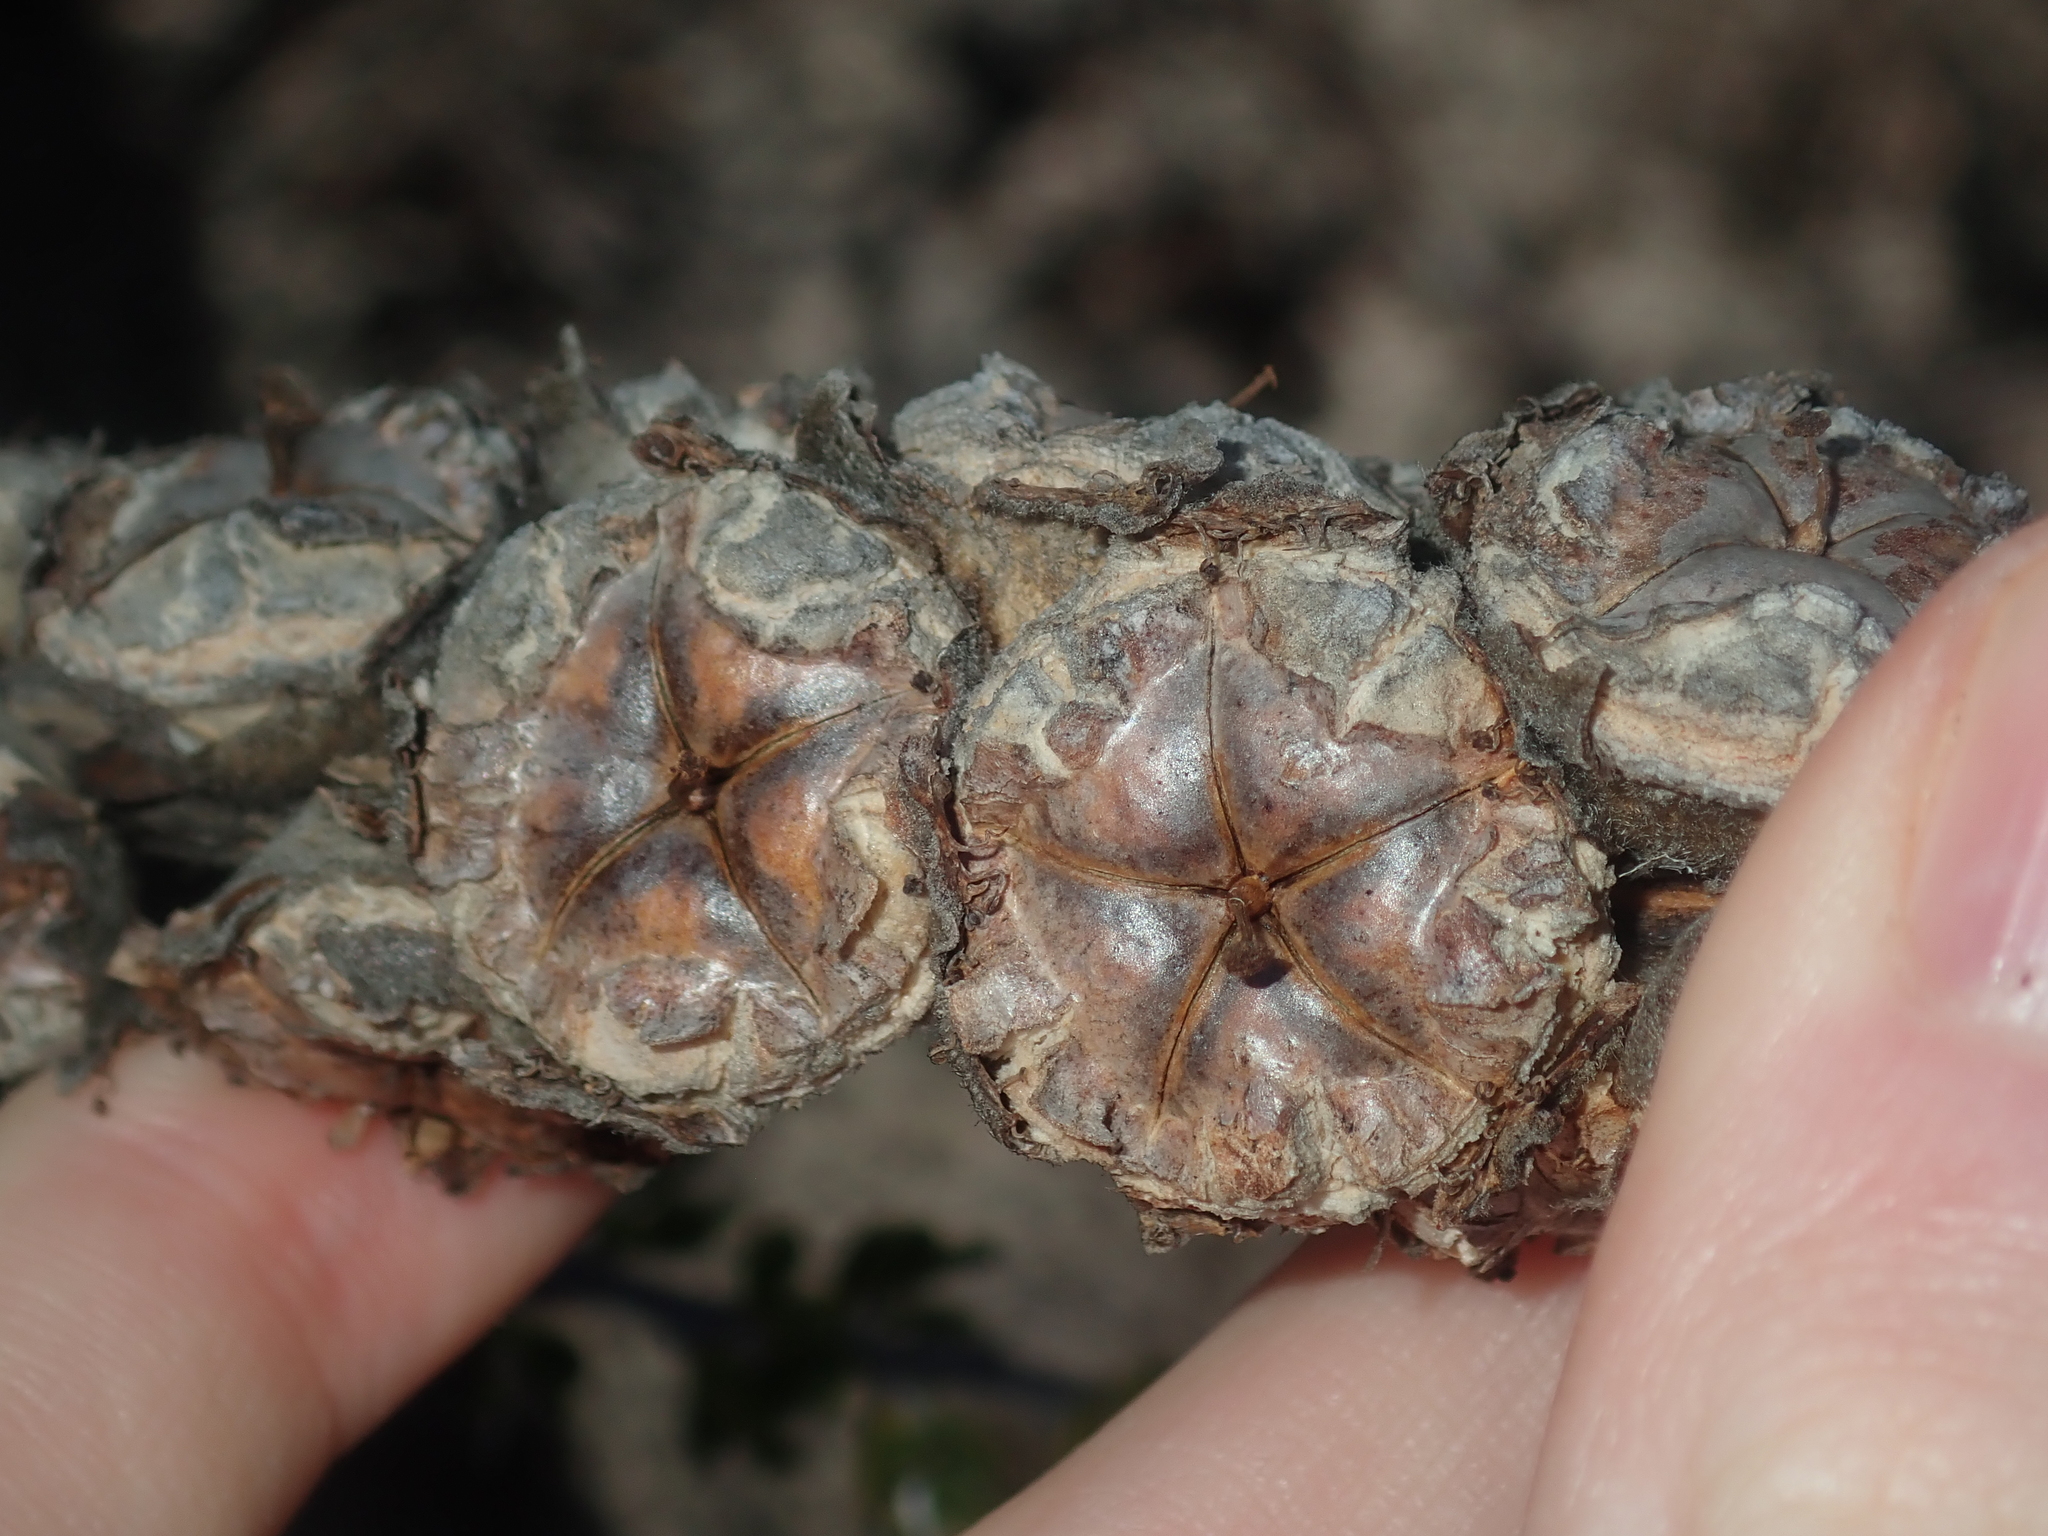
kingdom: Plantae
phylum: Tracheophyta
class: Magnoliopsida
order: Myrtales
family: Myrtaceae
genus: Leptospermum
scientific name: Leptospermum spinescens
